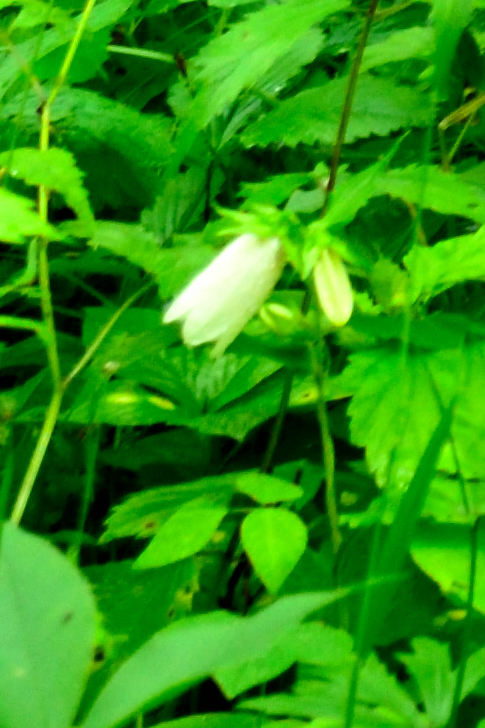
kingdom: Plantae
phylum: Tracheophyta
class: Magnoliopsida
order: Asterales
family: Campanulaceae
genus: Campanula
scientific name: Campanula punctata
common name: Spotted bellflower
